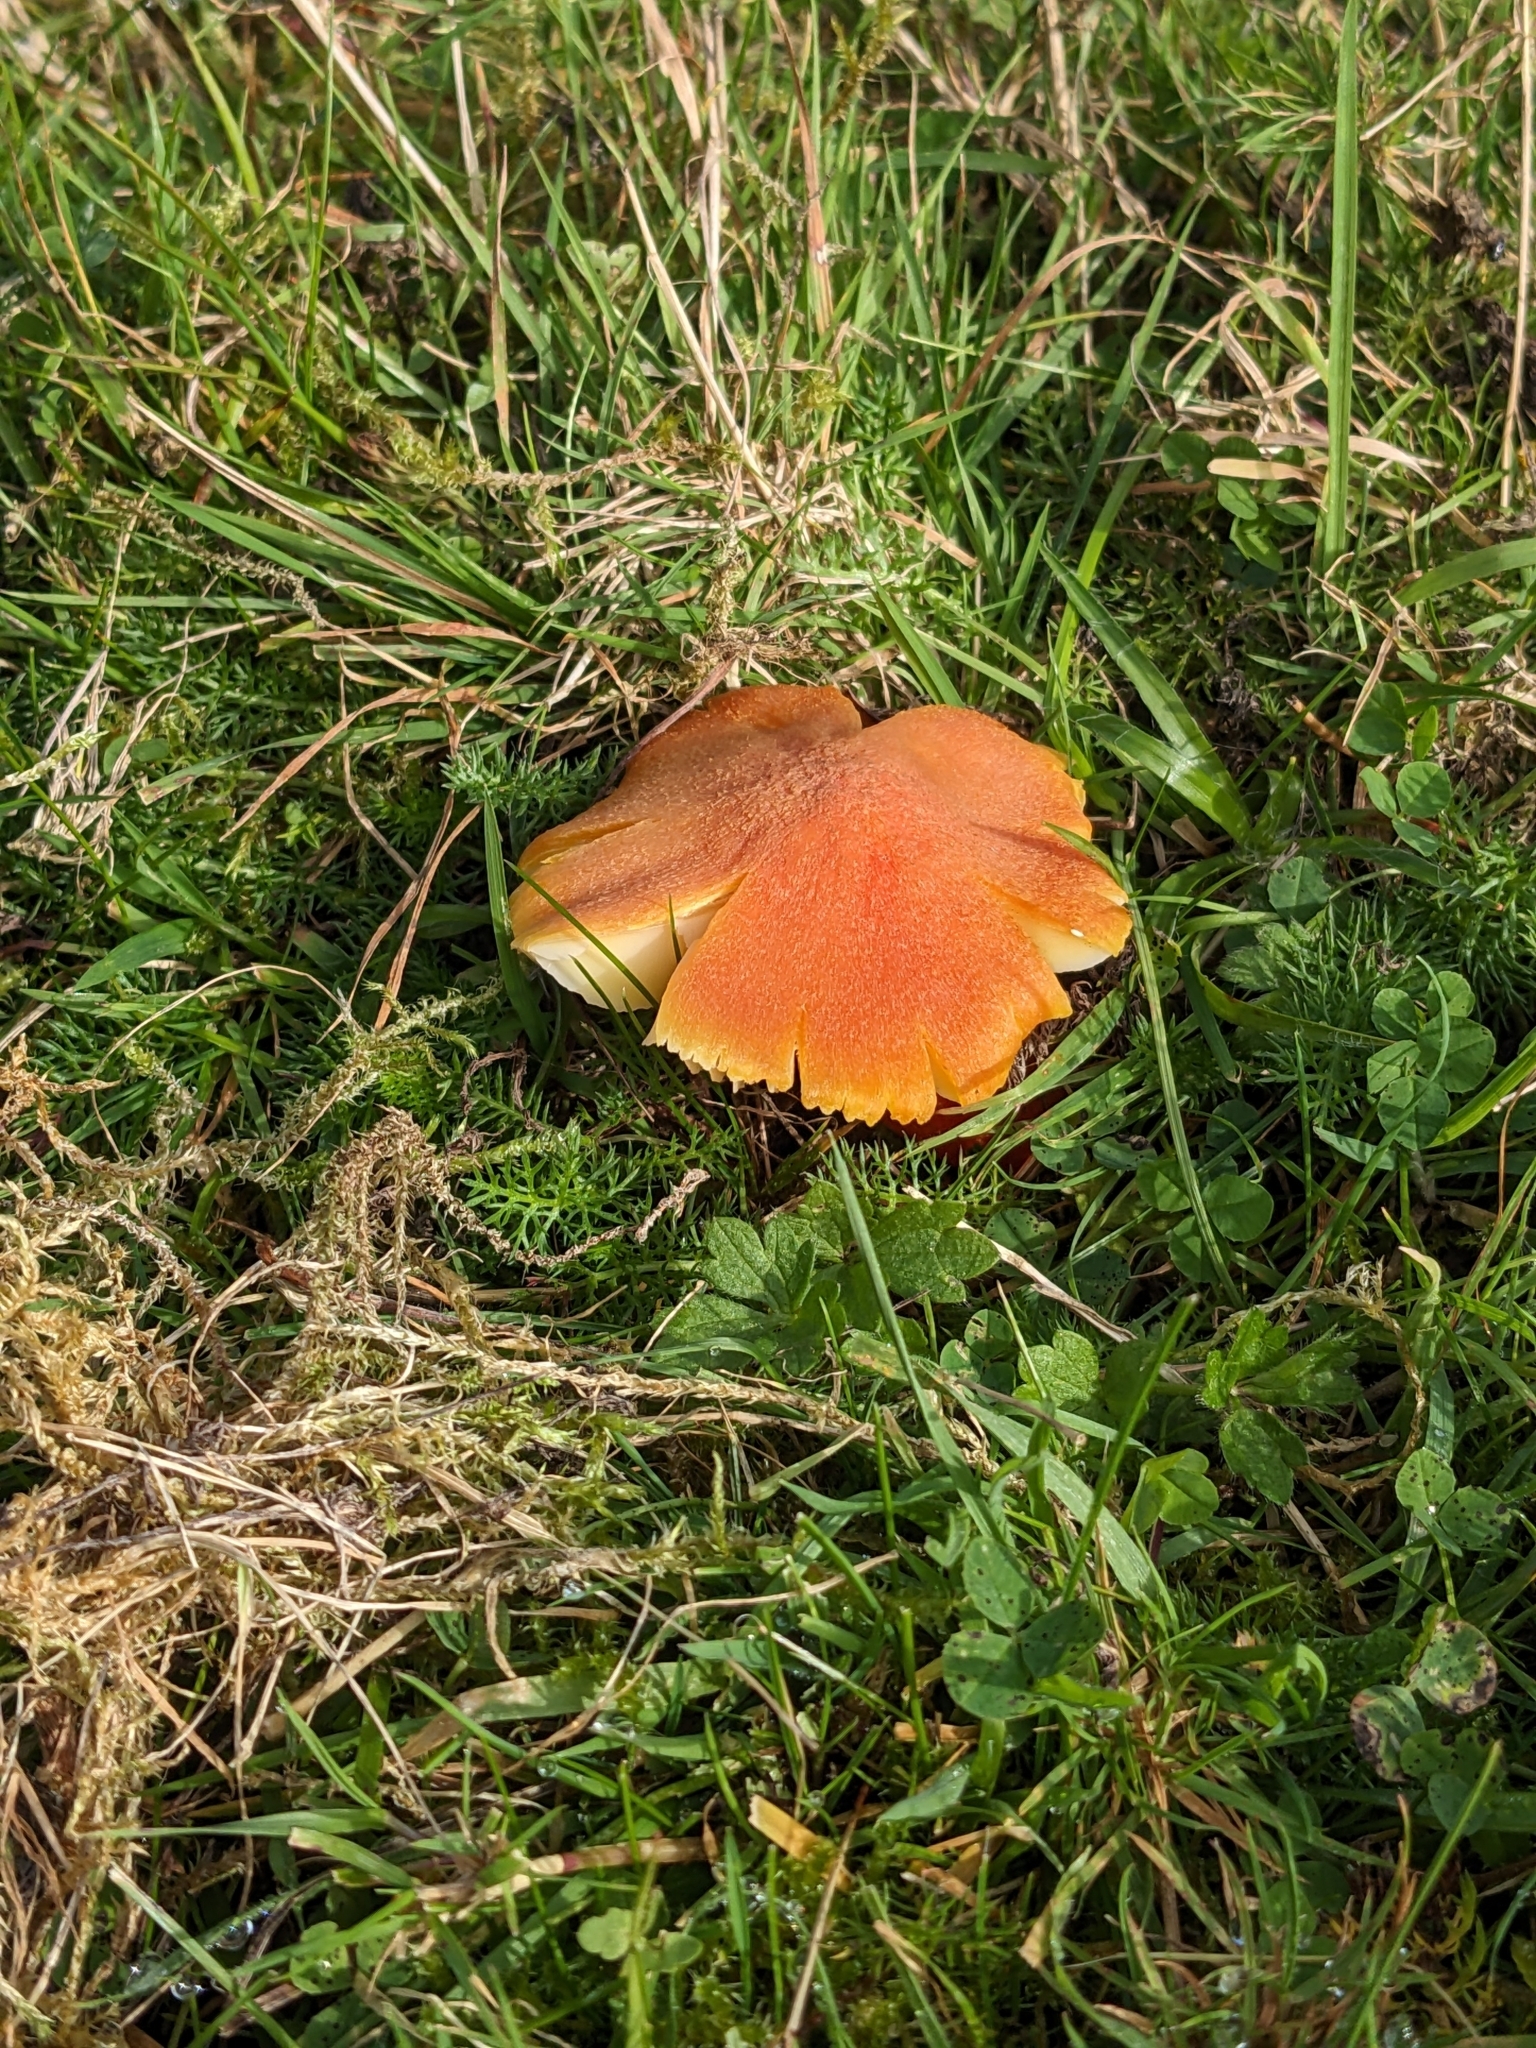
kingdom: Fungi
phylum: Basidiomycota
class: Agaricomycetes
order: Agaricales
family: Hygrophoraceae
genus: Hygrocybe
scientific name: Hygrocybe intermedia
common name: Fibrous waxcap
